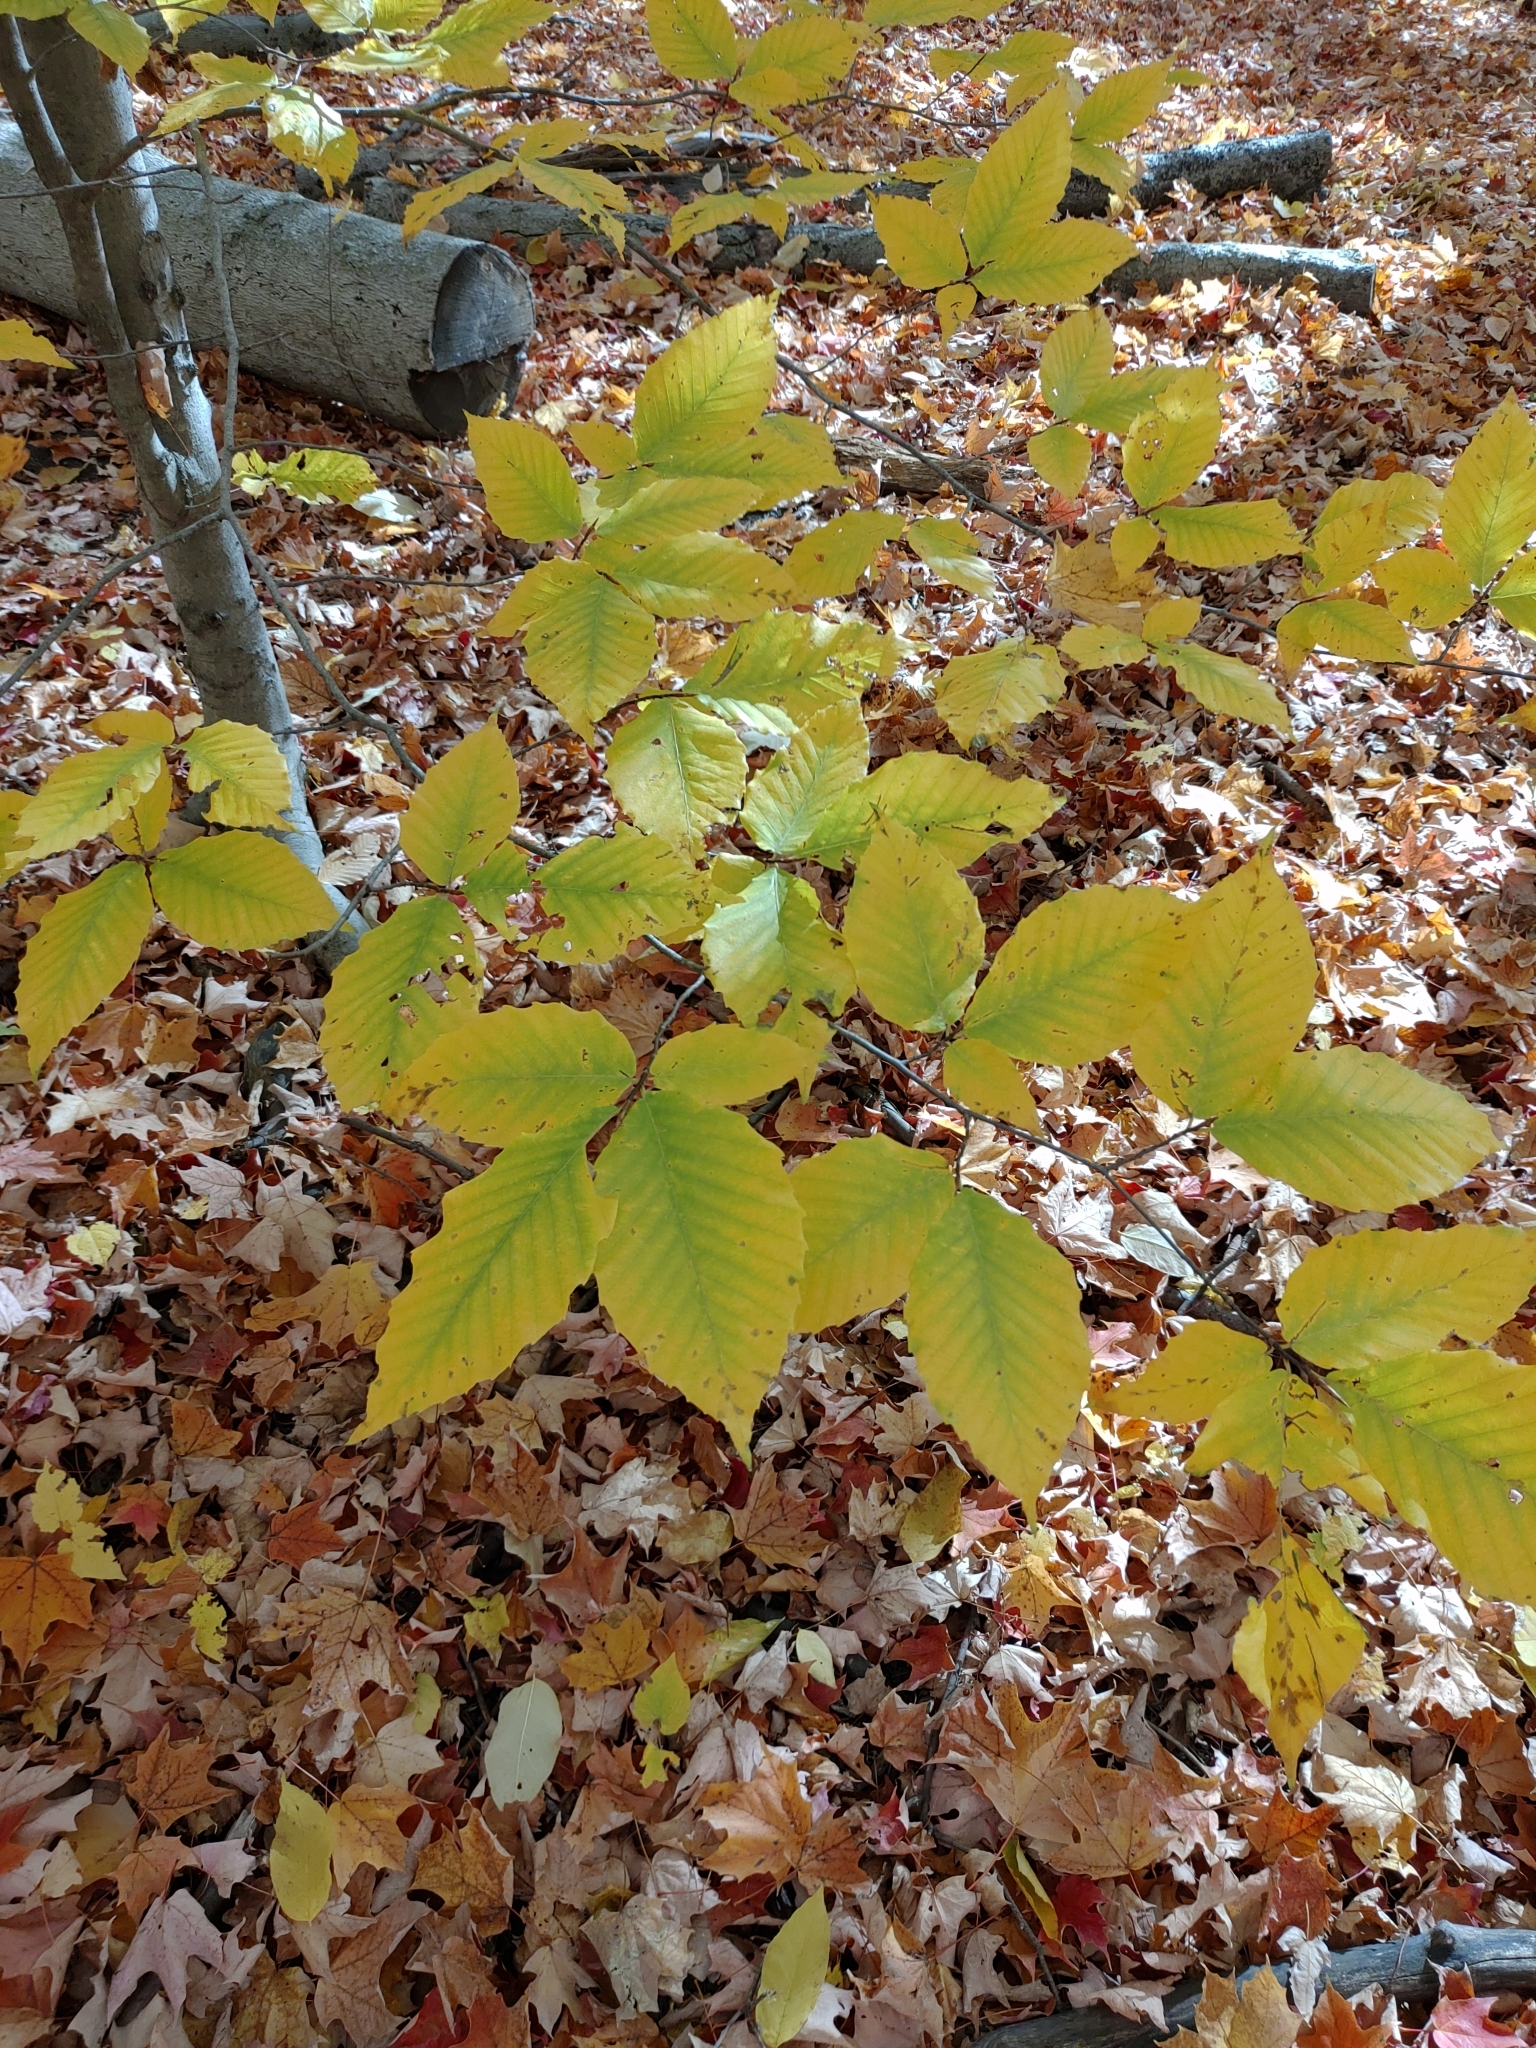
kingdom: Plantae
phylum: Tracheophyta
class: Magnoliopsida
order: Fagales
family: Fagaceae
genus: Fagus
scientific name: Fagus grandifolia
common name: American beech
